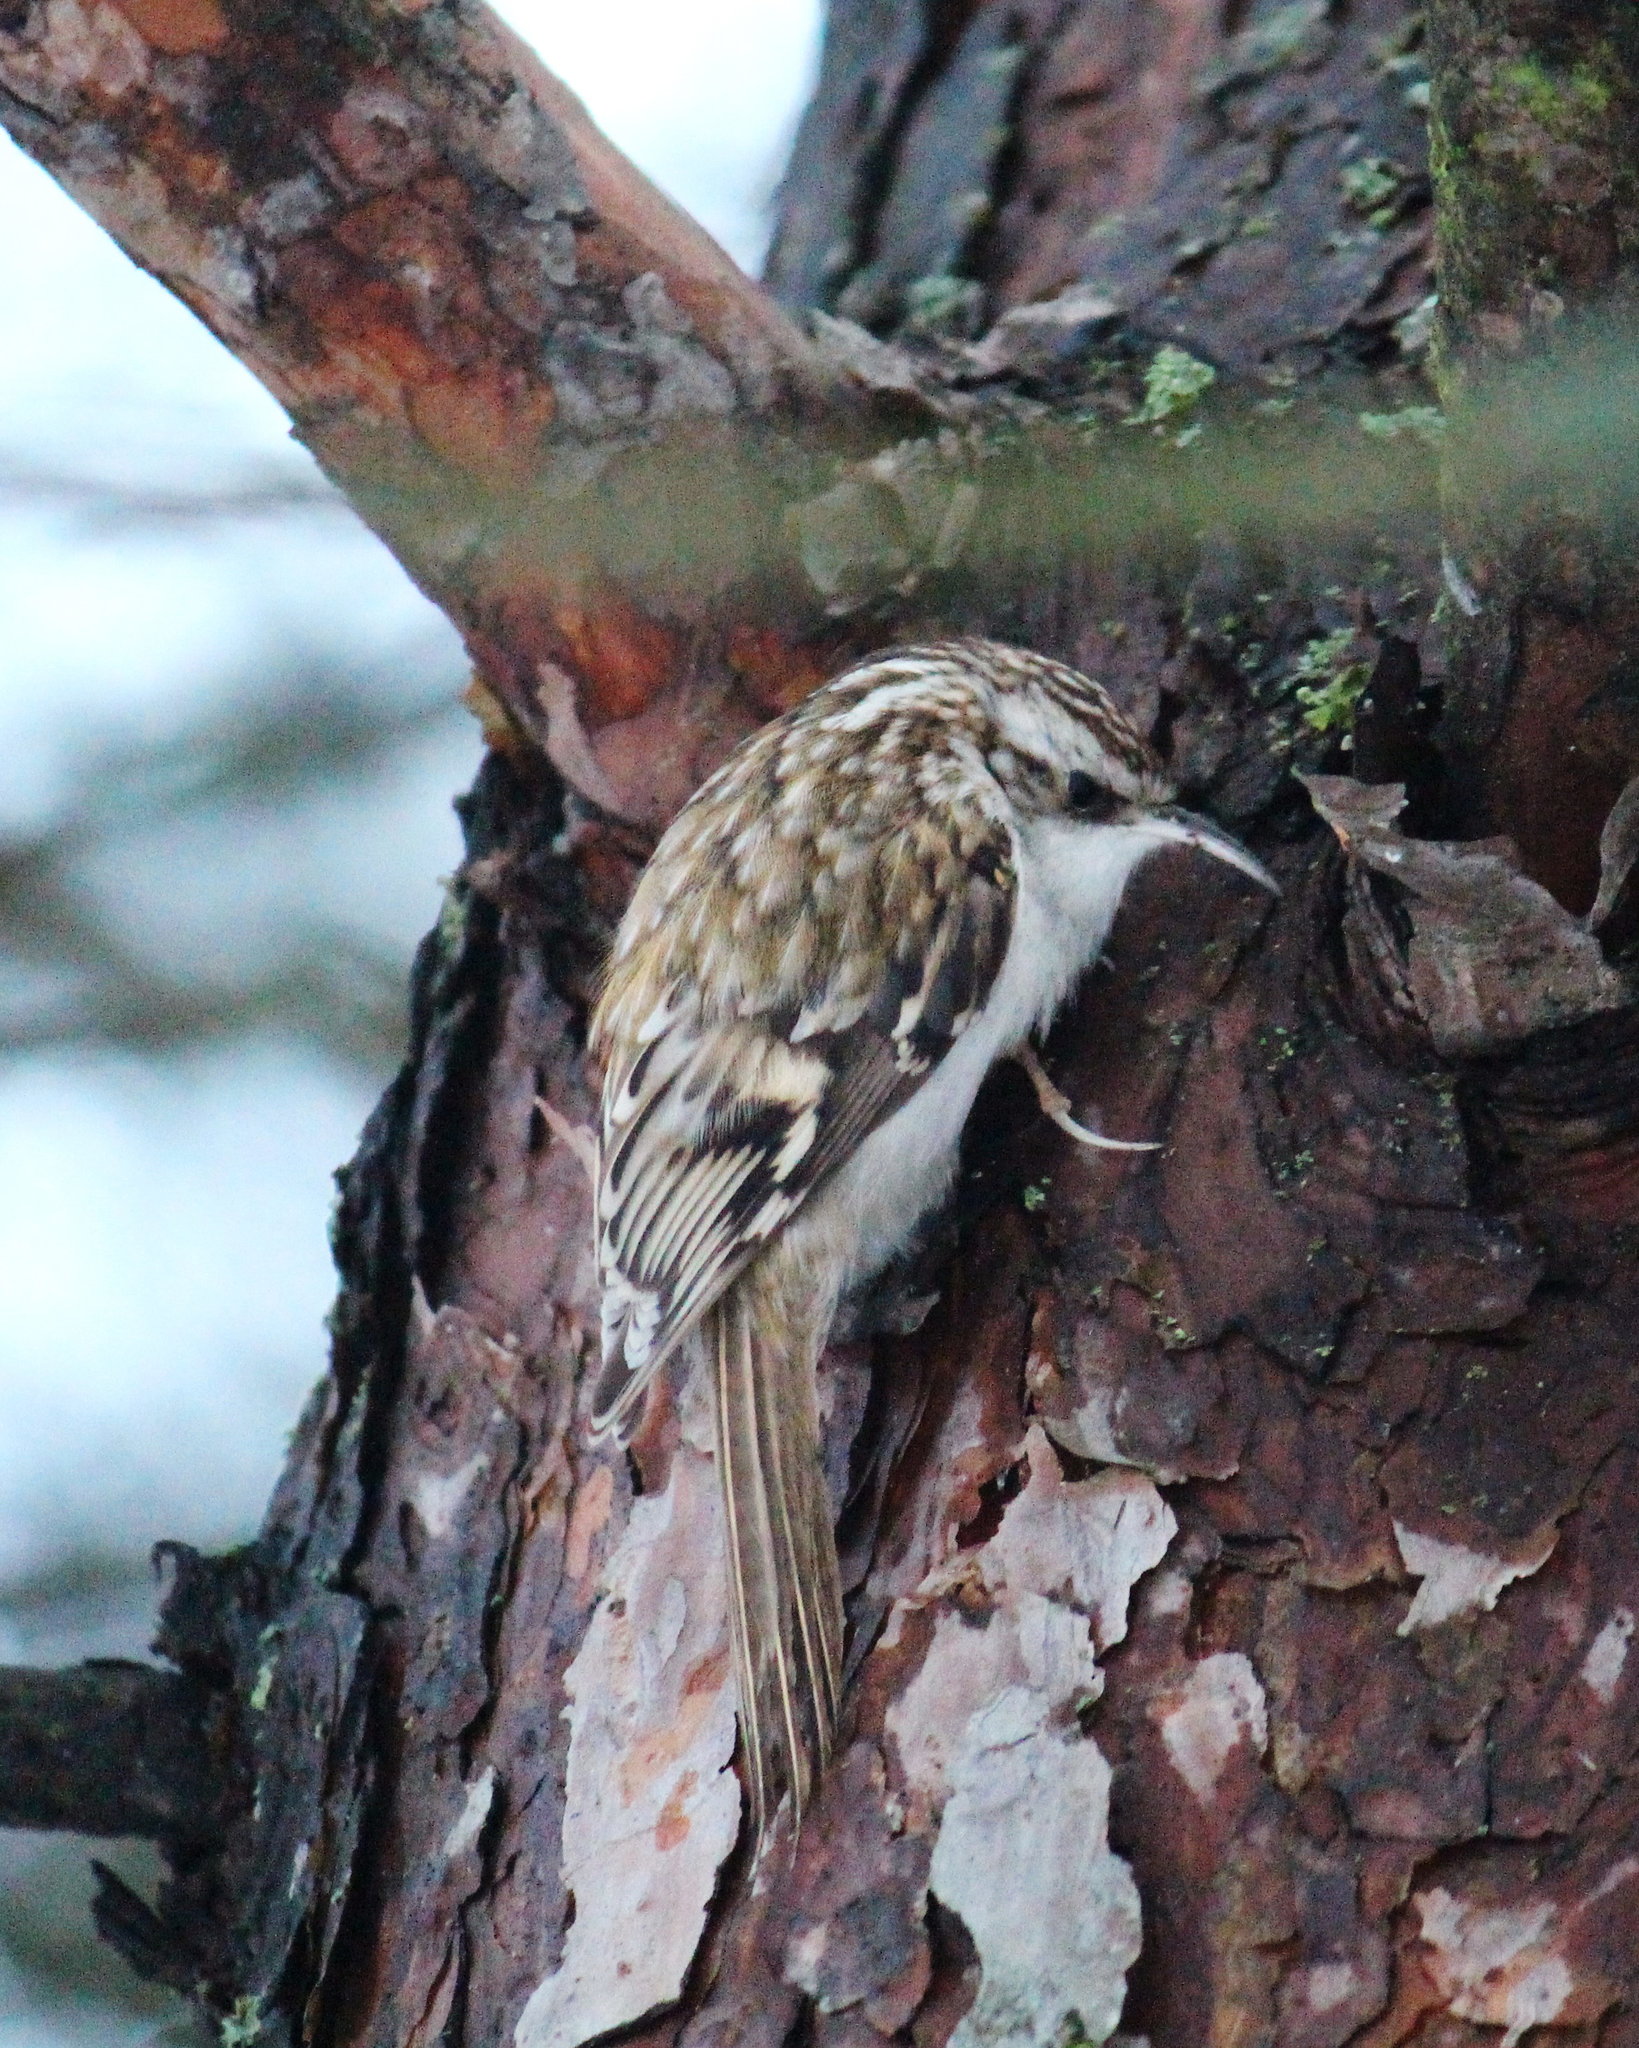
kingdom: Animalia
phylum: Chordata
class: Aves
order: Passeriformes
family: Certhiidae
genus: Certhia
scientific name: Certhia familiaris
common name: Eurasian treecreeper
